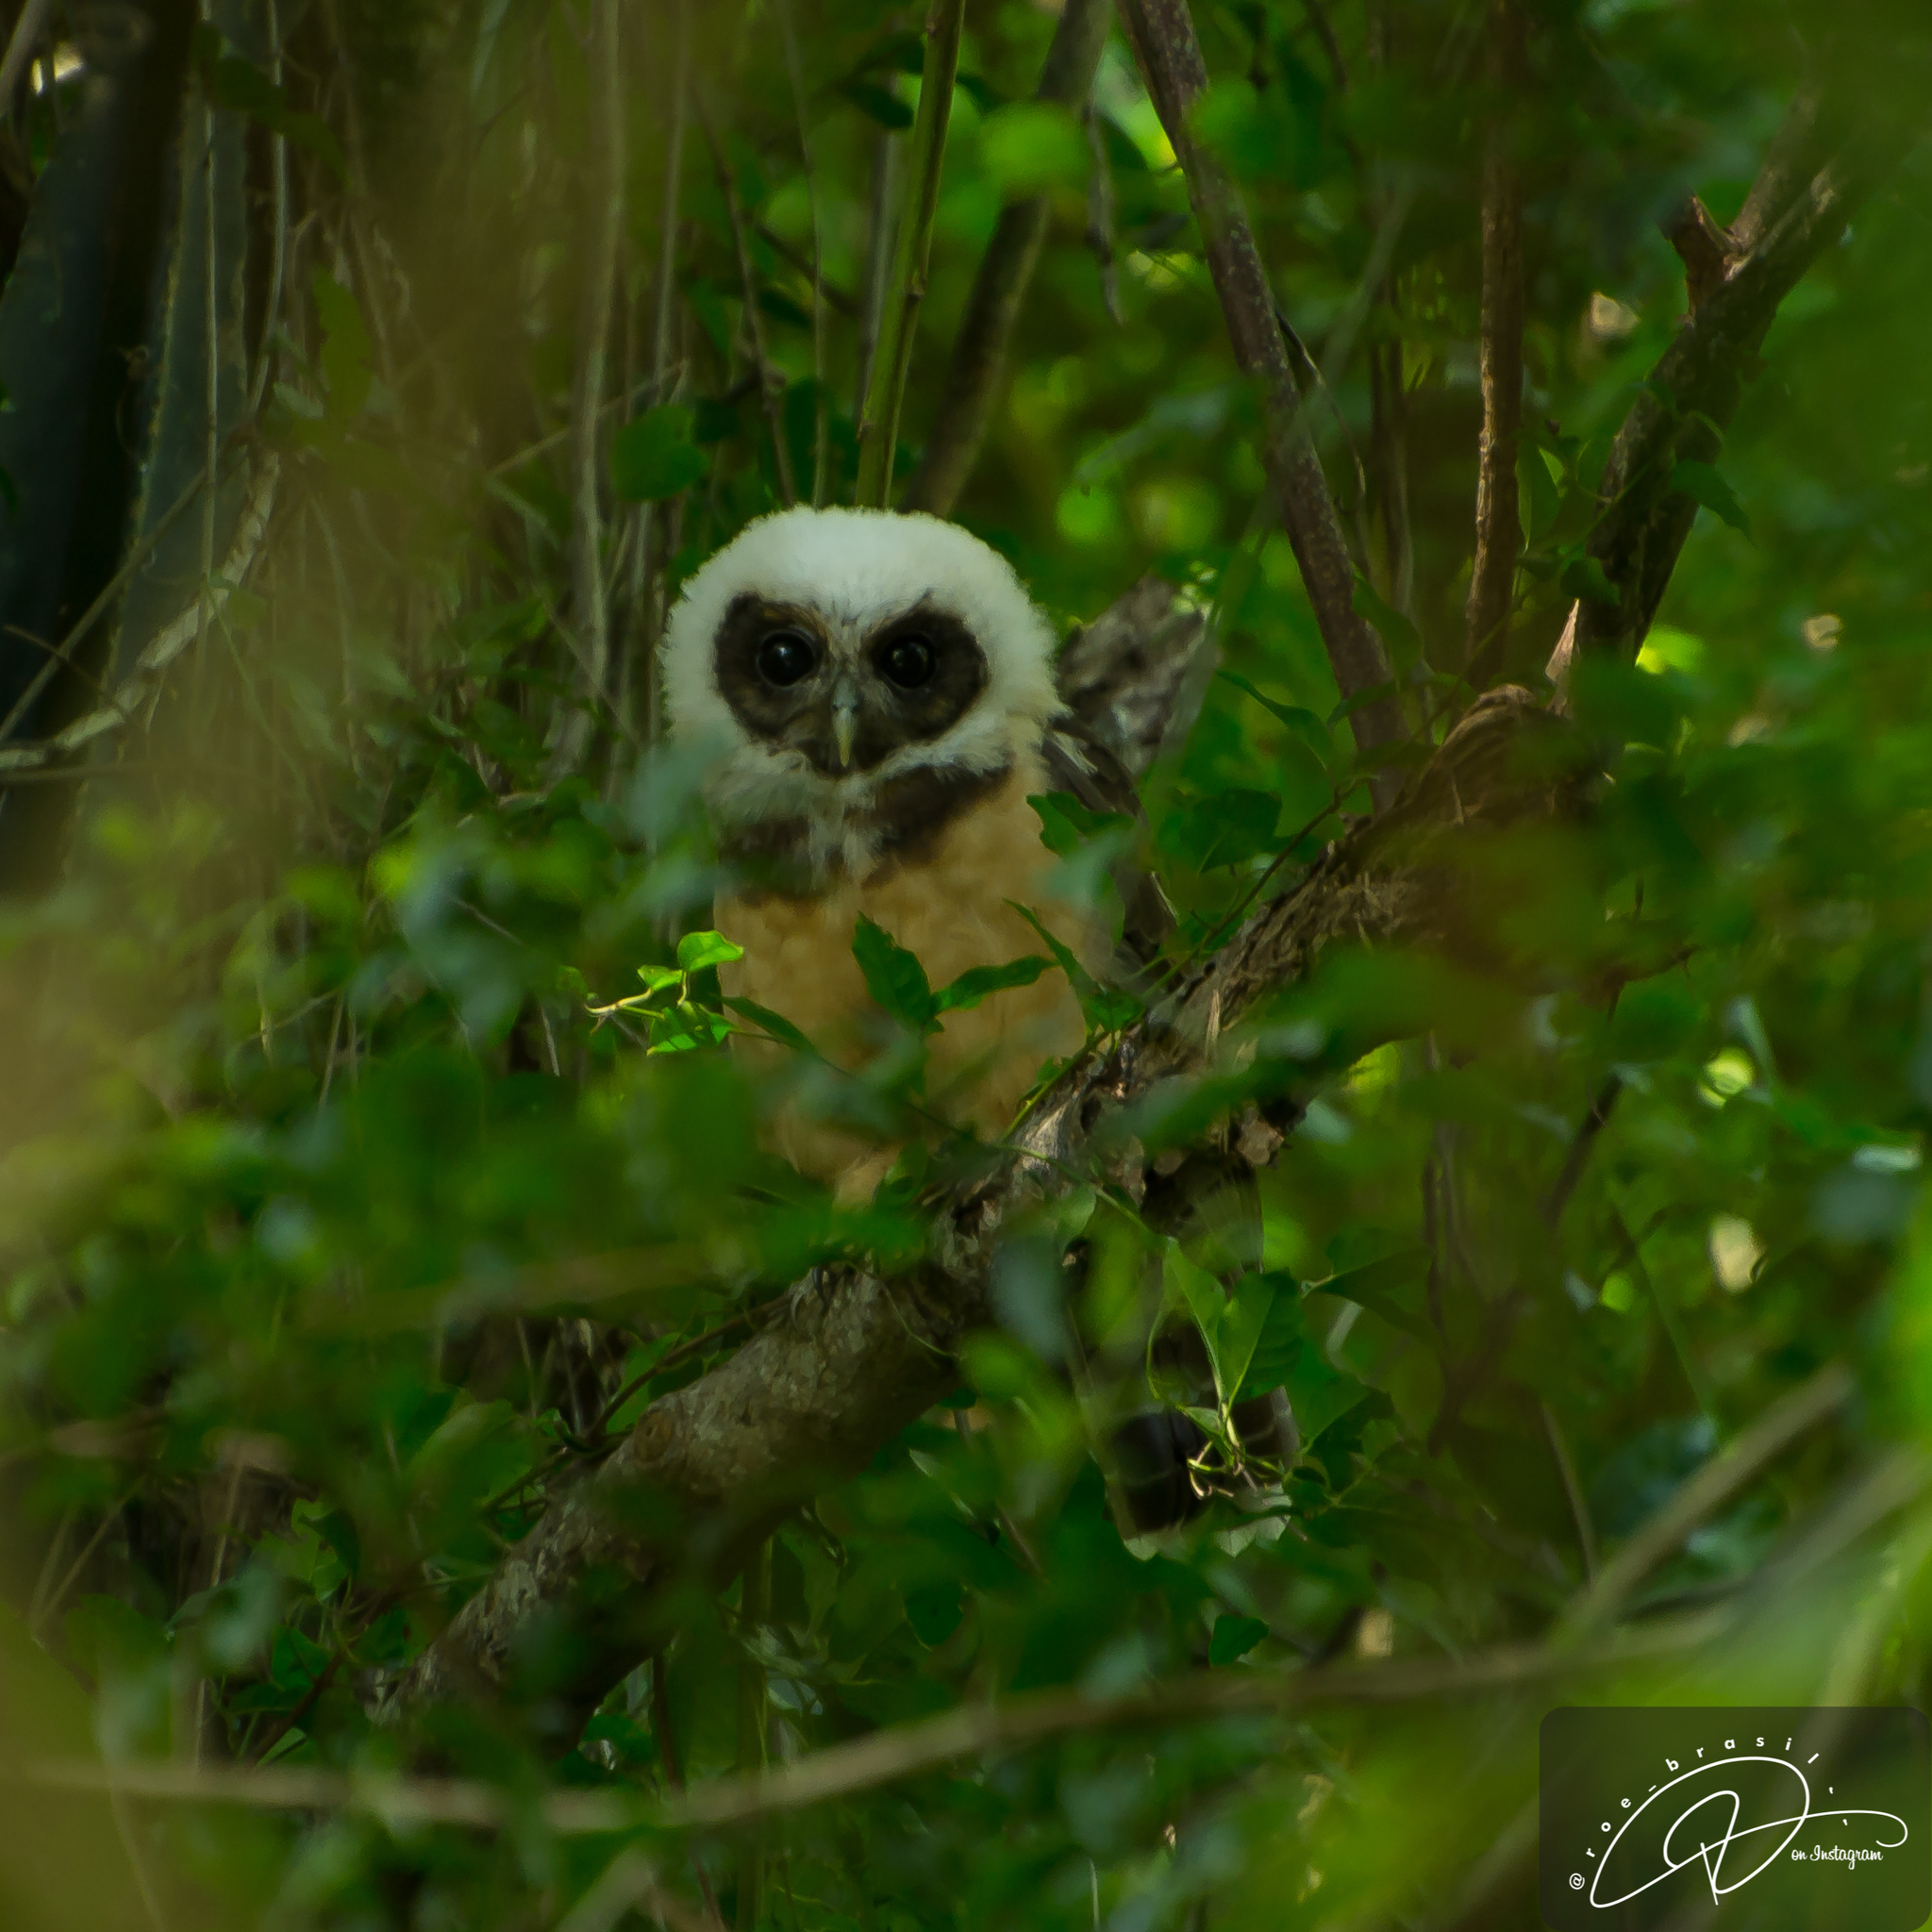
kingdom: Animalia
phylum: Chordata
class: Aves
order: Strigiformes
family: Strigidae
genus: Pulsatrix
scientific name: Pulsatrix koeniswaldiana
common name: Tawny-browed owl
